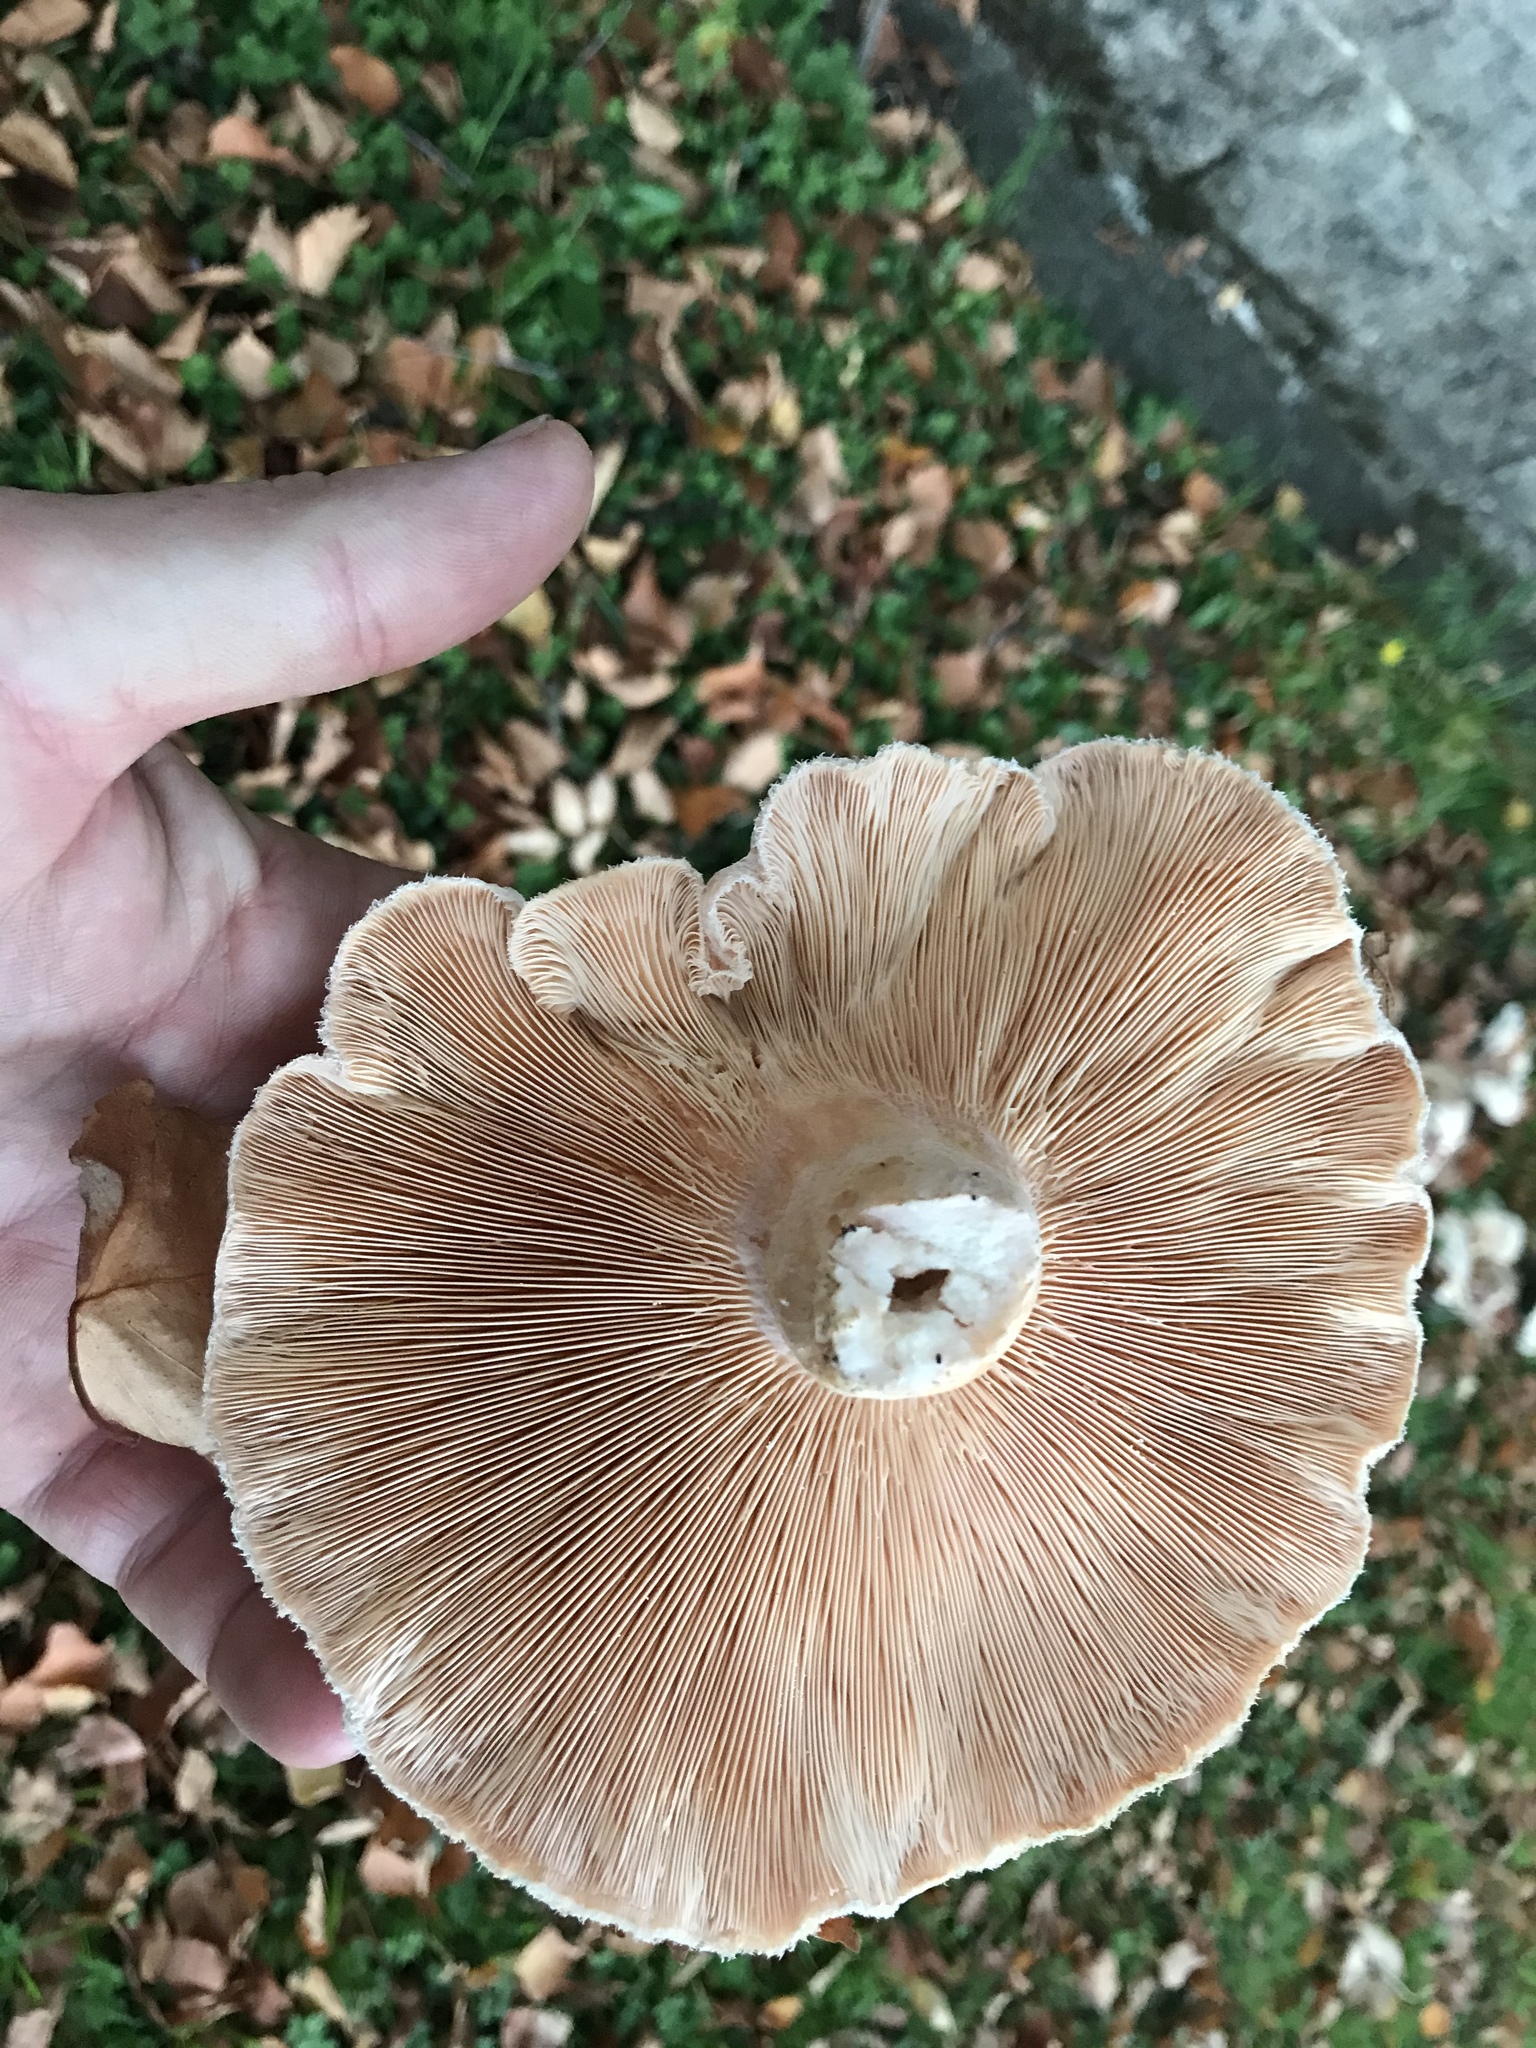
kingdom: Fungi
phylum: Basidiomycota
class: Agaricomycetes
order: Russulales
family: Russulaceae
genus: Lactarius
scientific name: Lactarius pubescens
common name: Bearded milkcap
